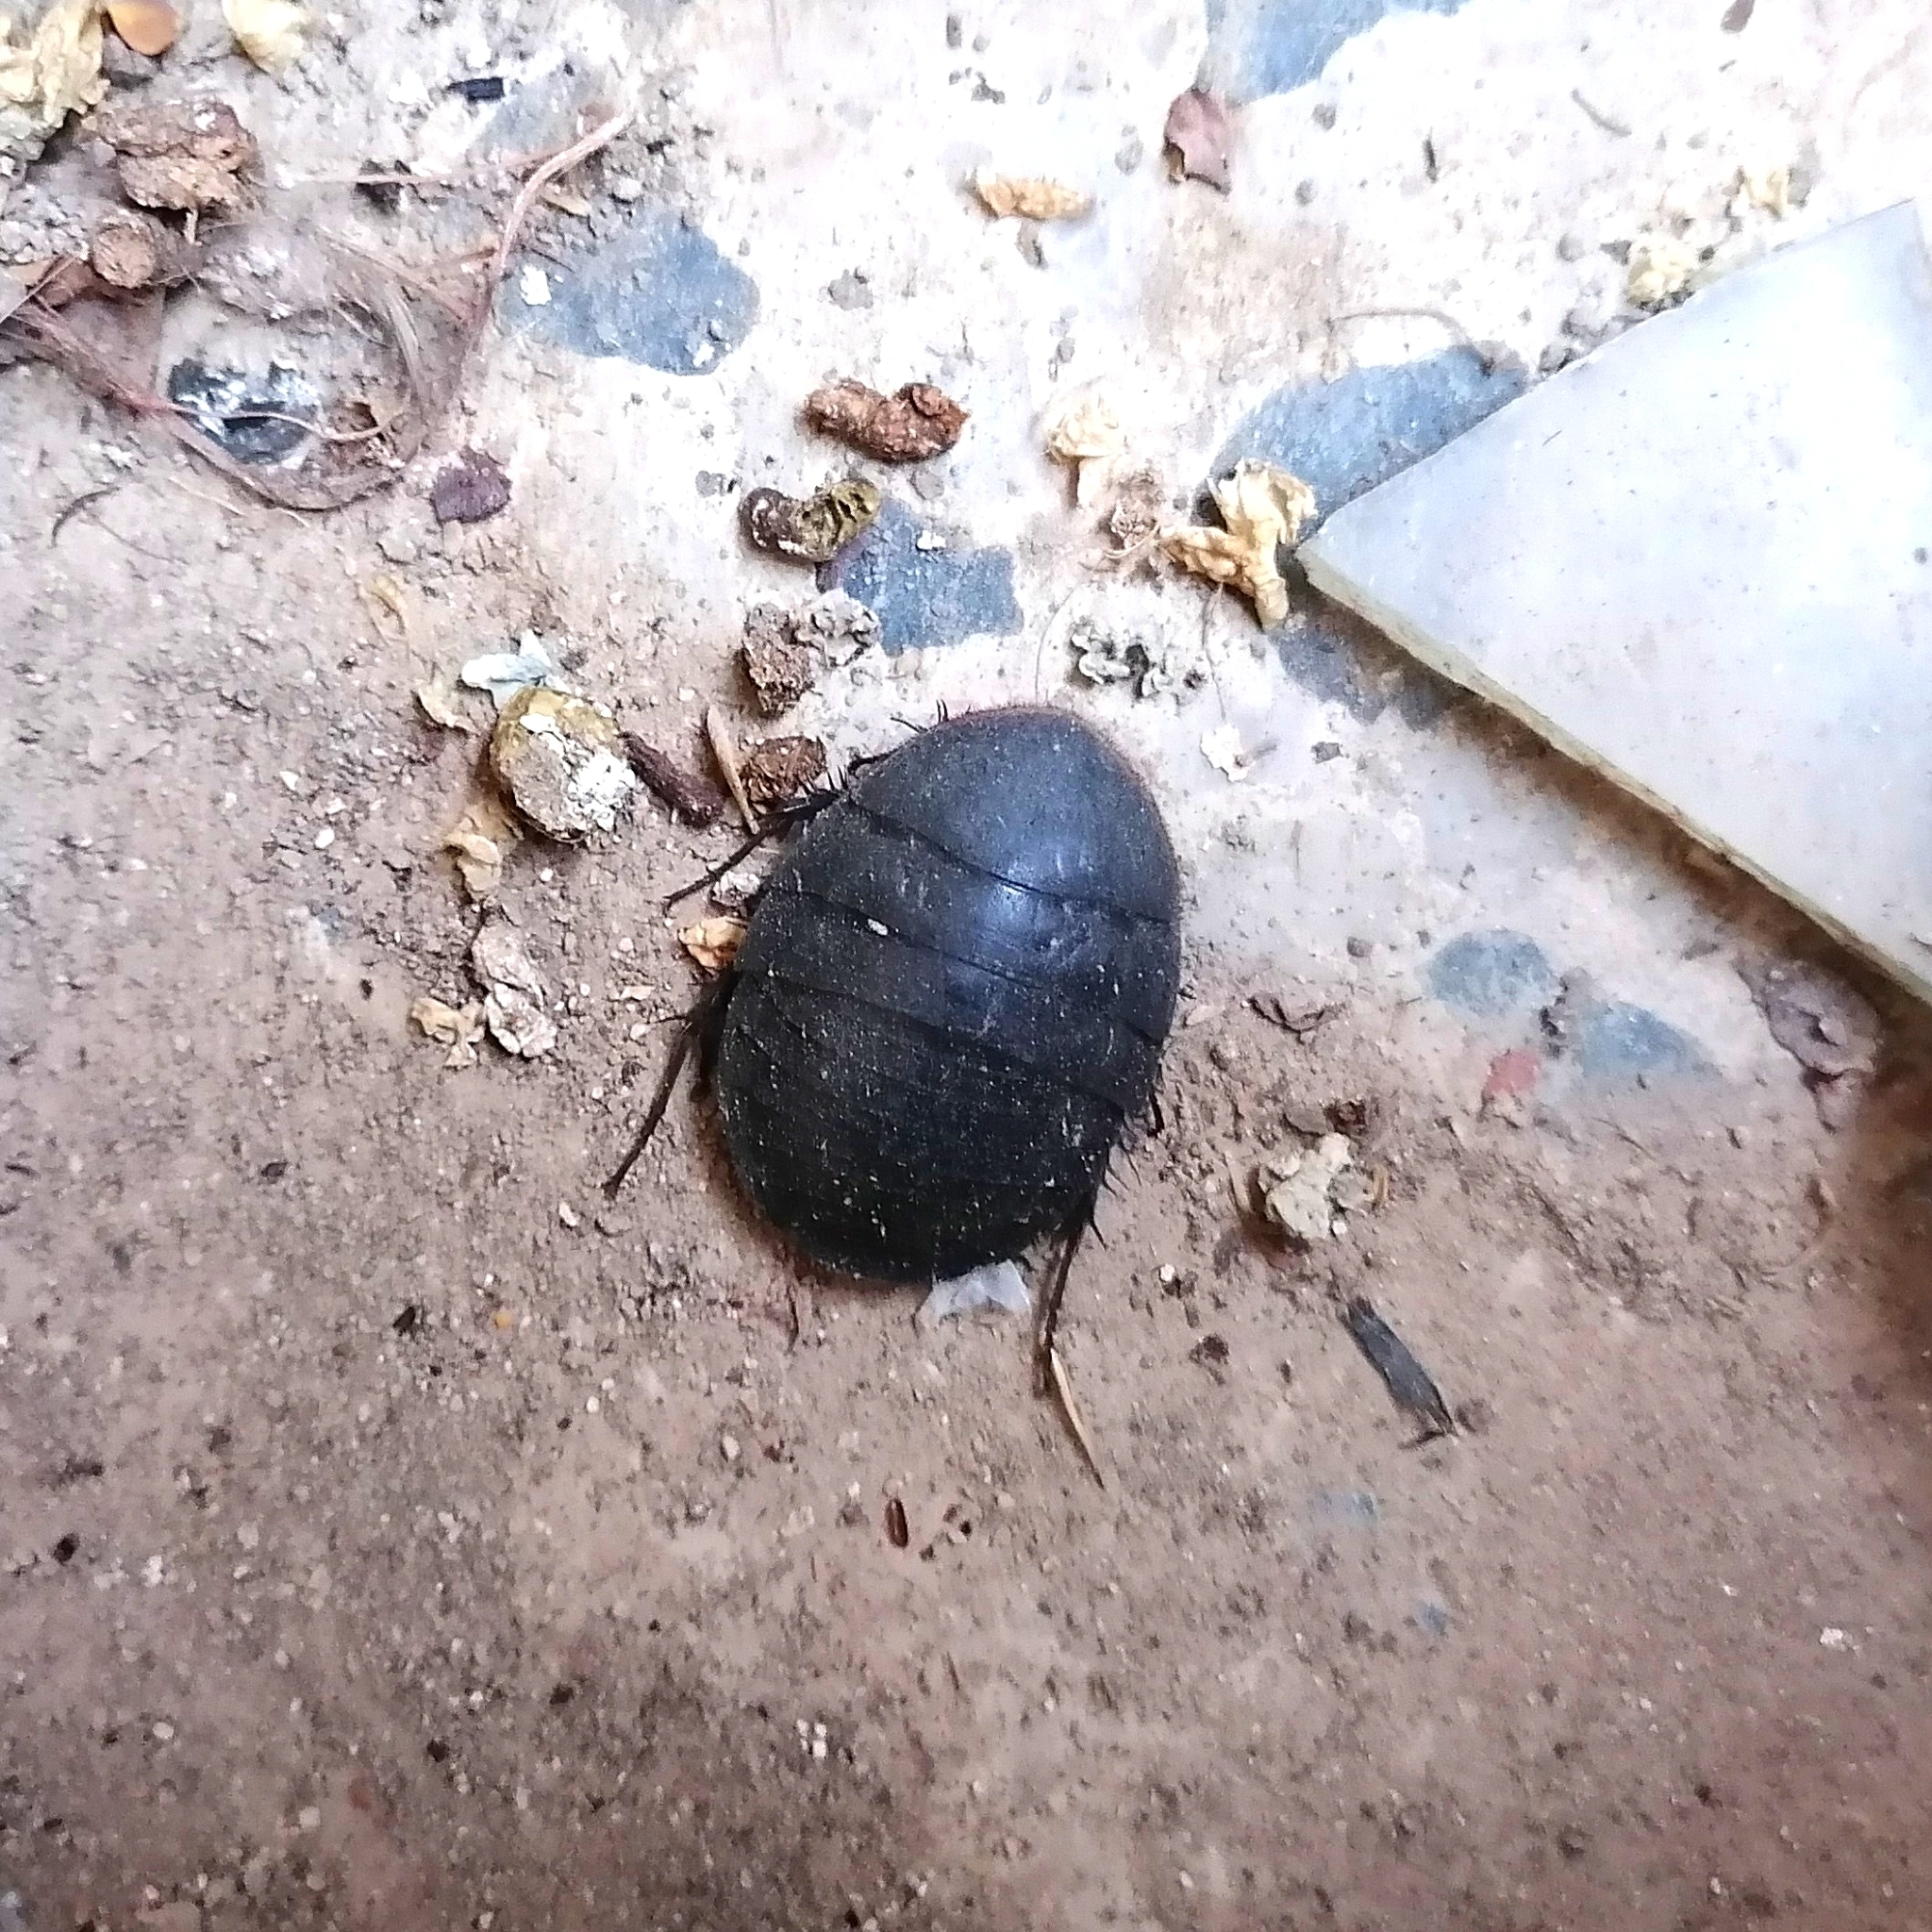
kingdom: Animalia
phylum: Arthropoda
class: Insecta
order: Blattodea
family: Corydiidae
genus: Polyphaga
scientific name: Polyphaga aegyptiaca
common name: Egyptian cockroach
